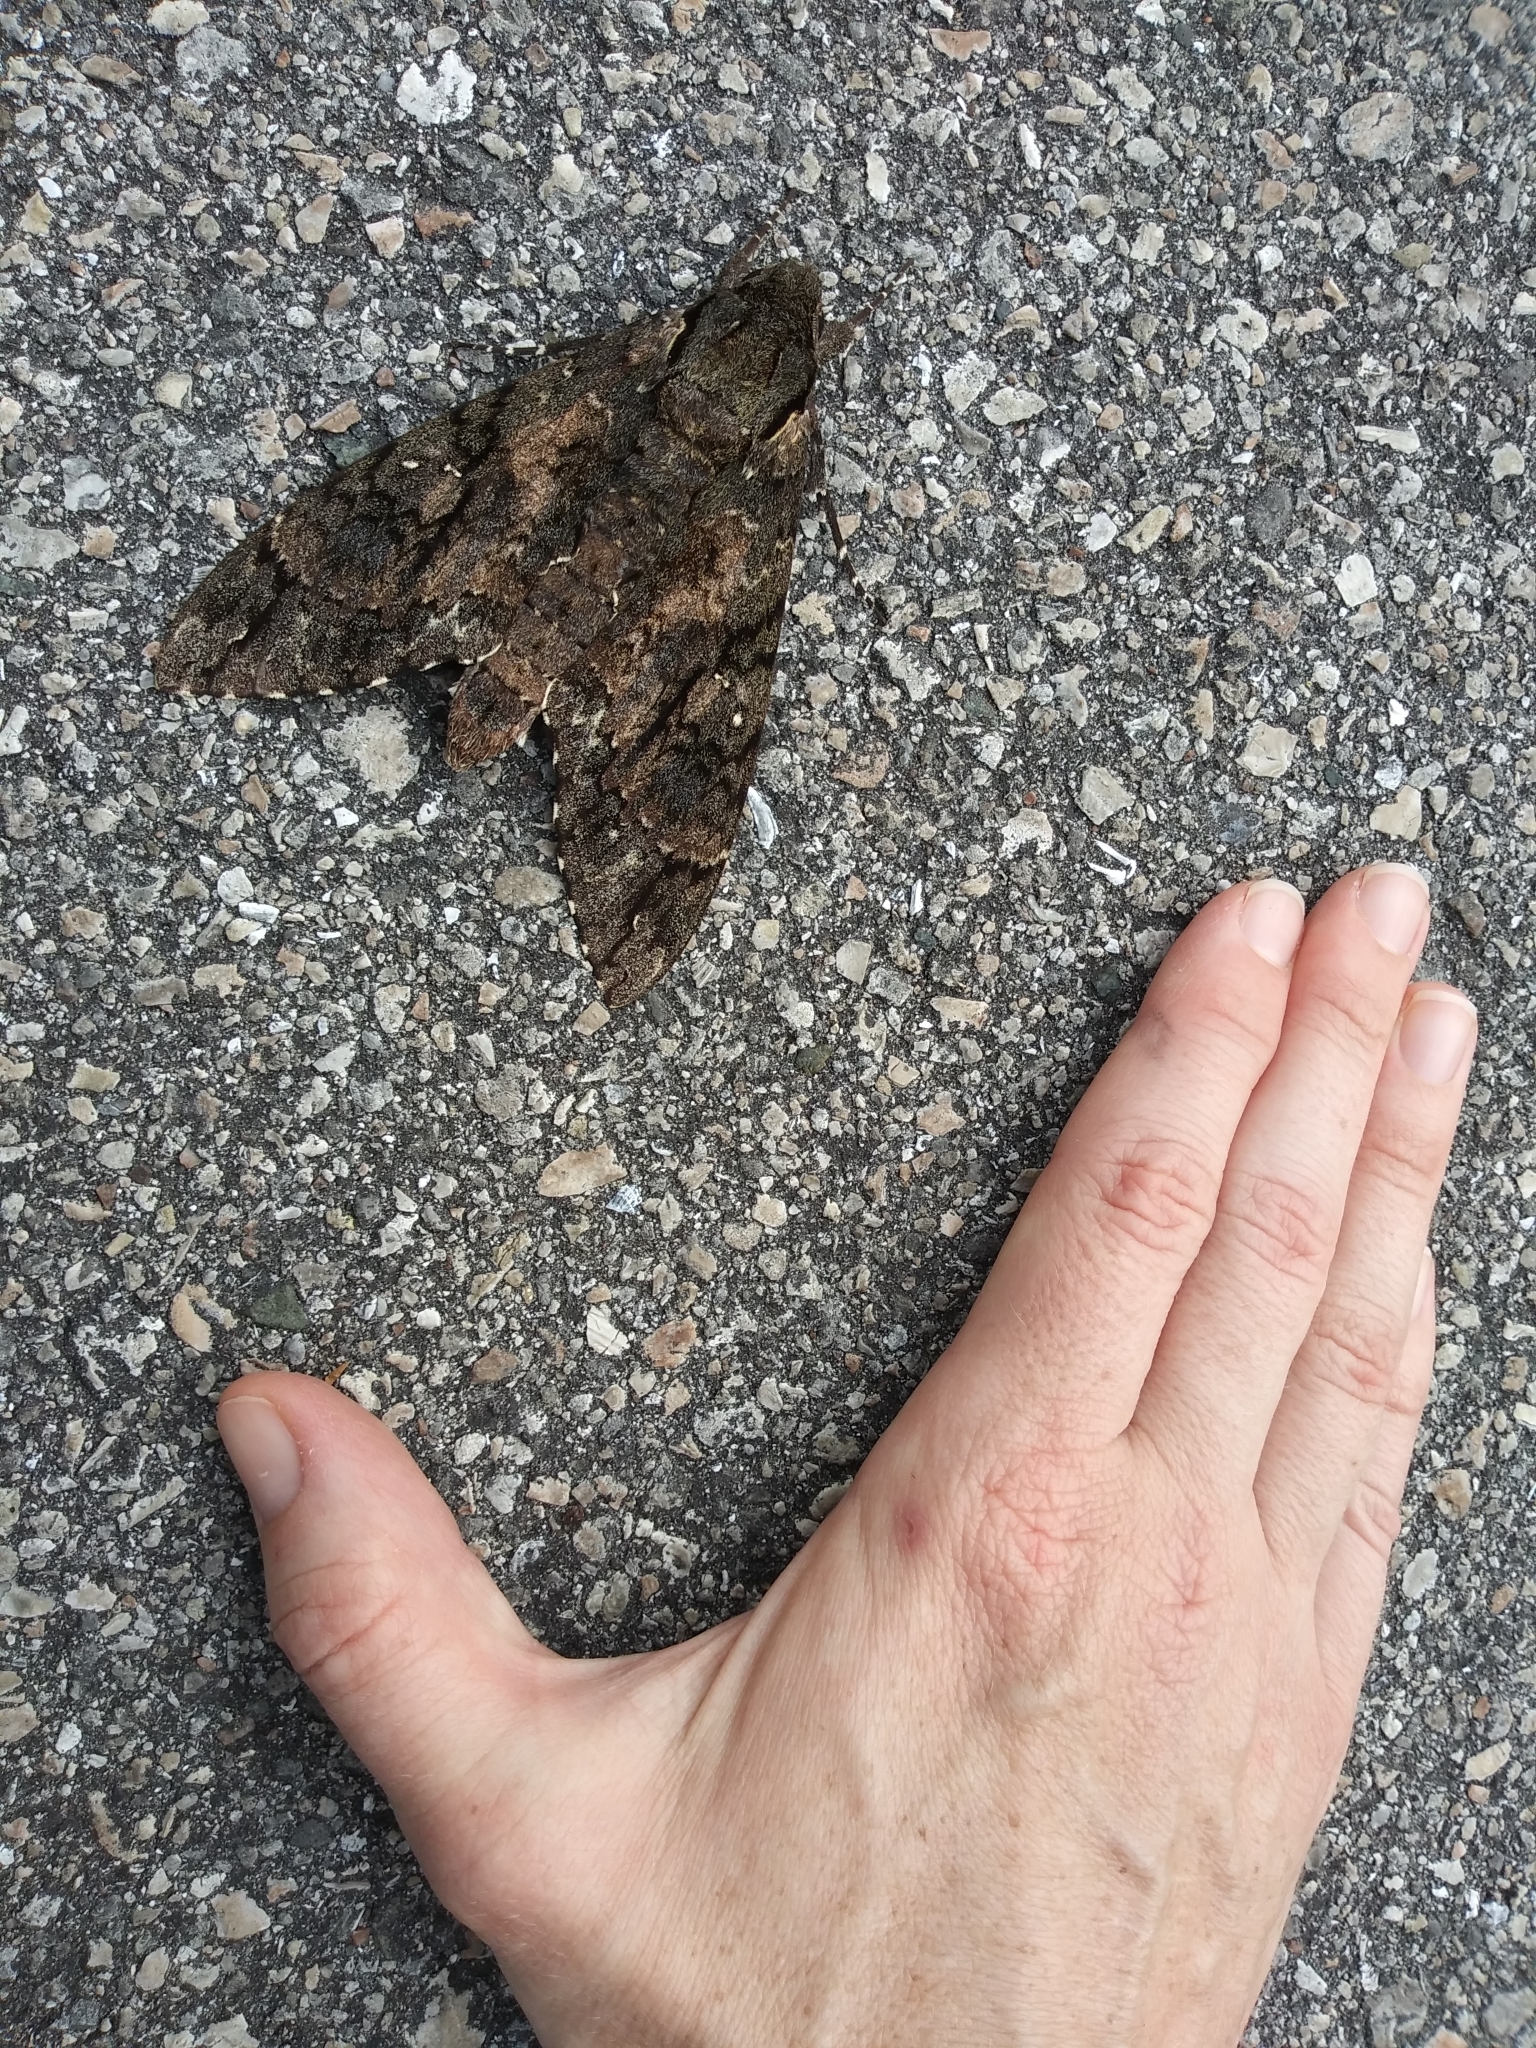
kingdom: Animalia
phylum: Arthropoda
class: Insecta
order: Lepidoptera
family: Sphingidae
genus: Cocytius
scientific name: Cocytius antaeus
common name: Giant sphinx
